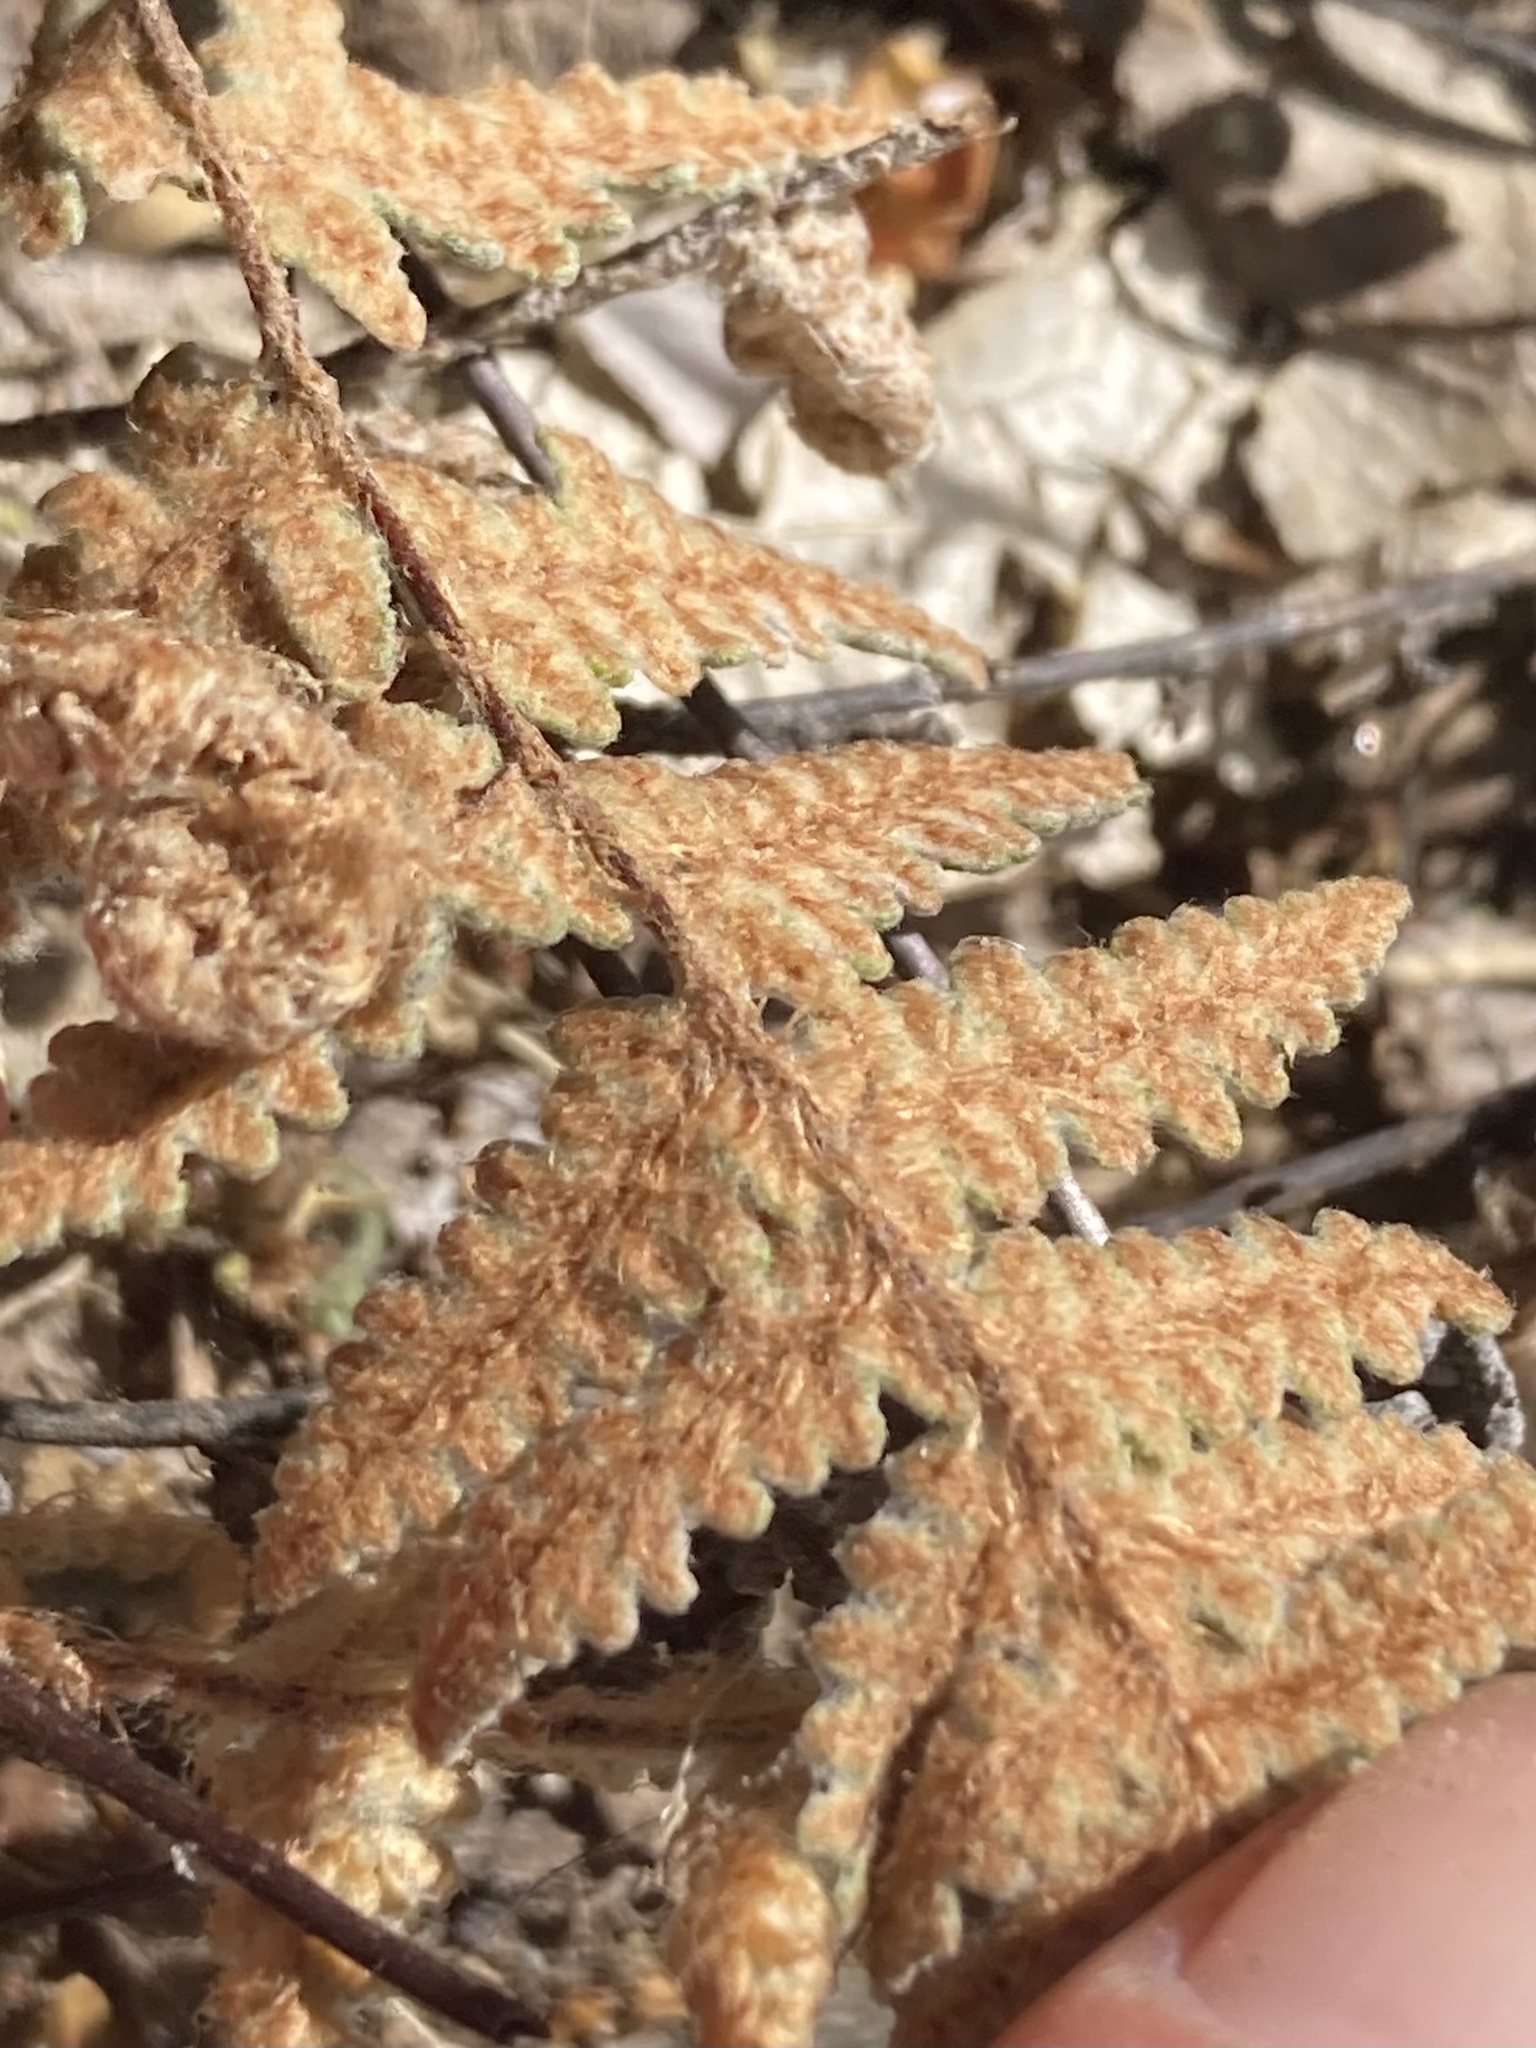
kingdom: Plantae
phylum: Tracheophyta
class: Polypodiopsida
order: Polypodiales
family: Pteridaceae
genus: Myriopteris
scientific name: Myriopteris lindheimeri
